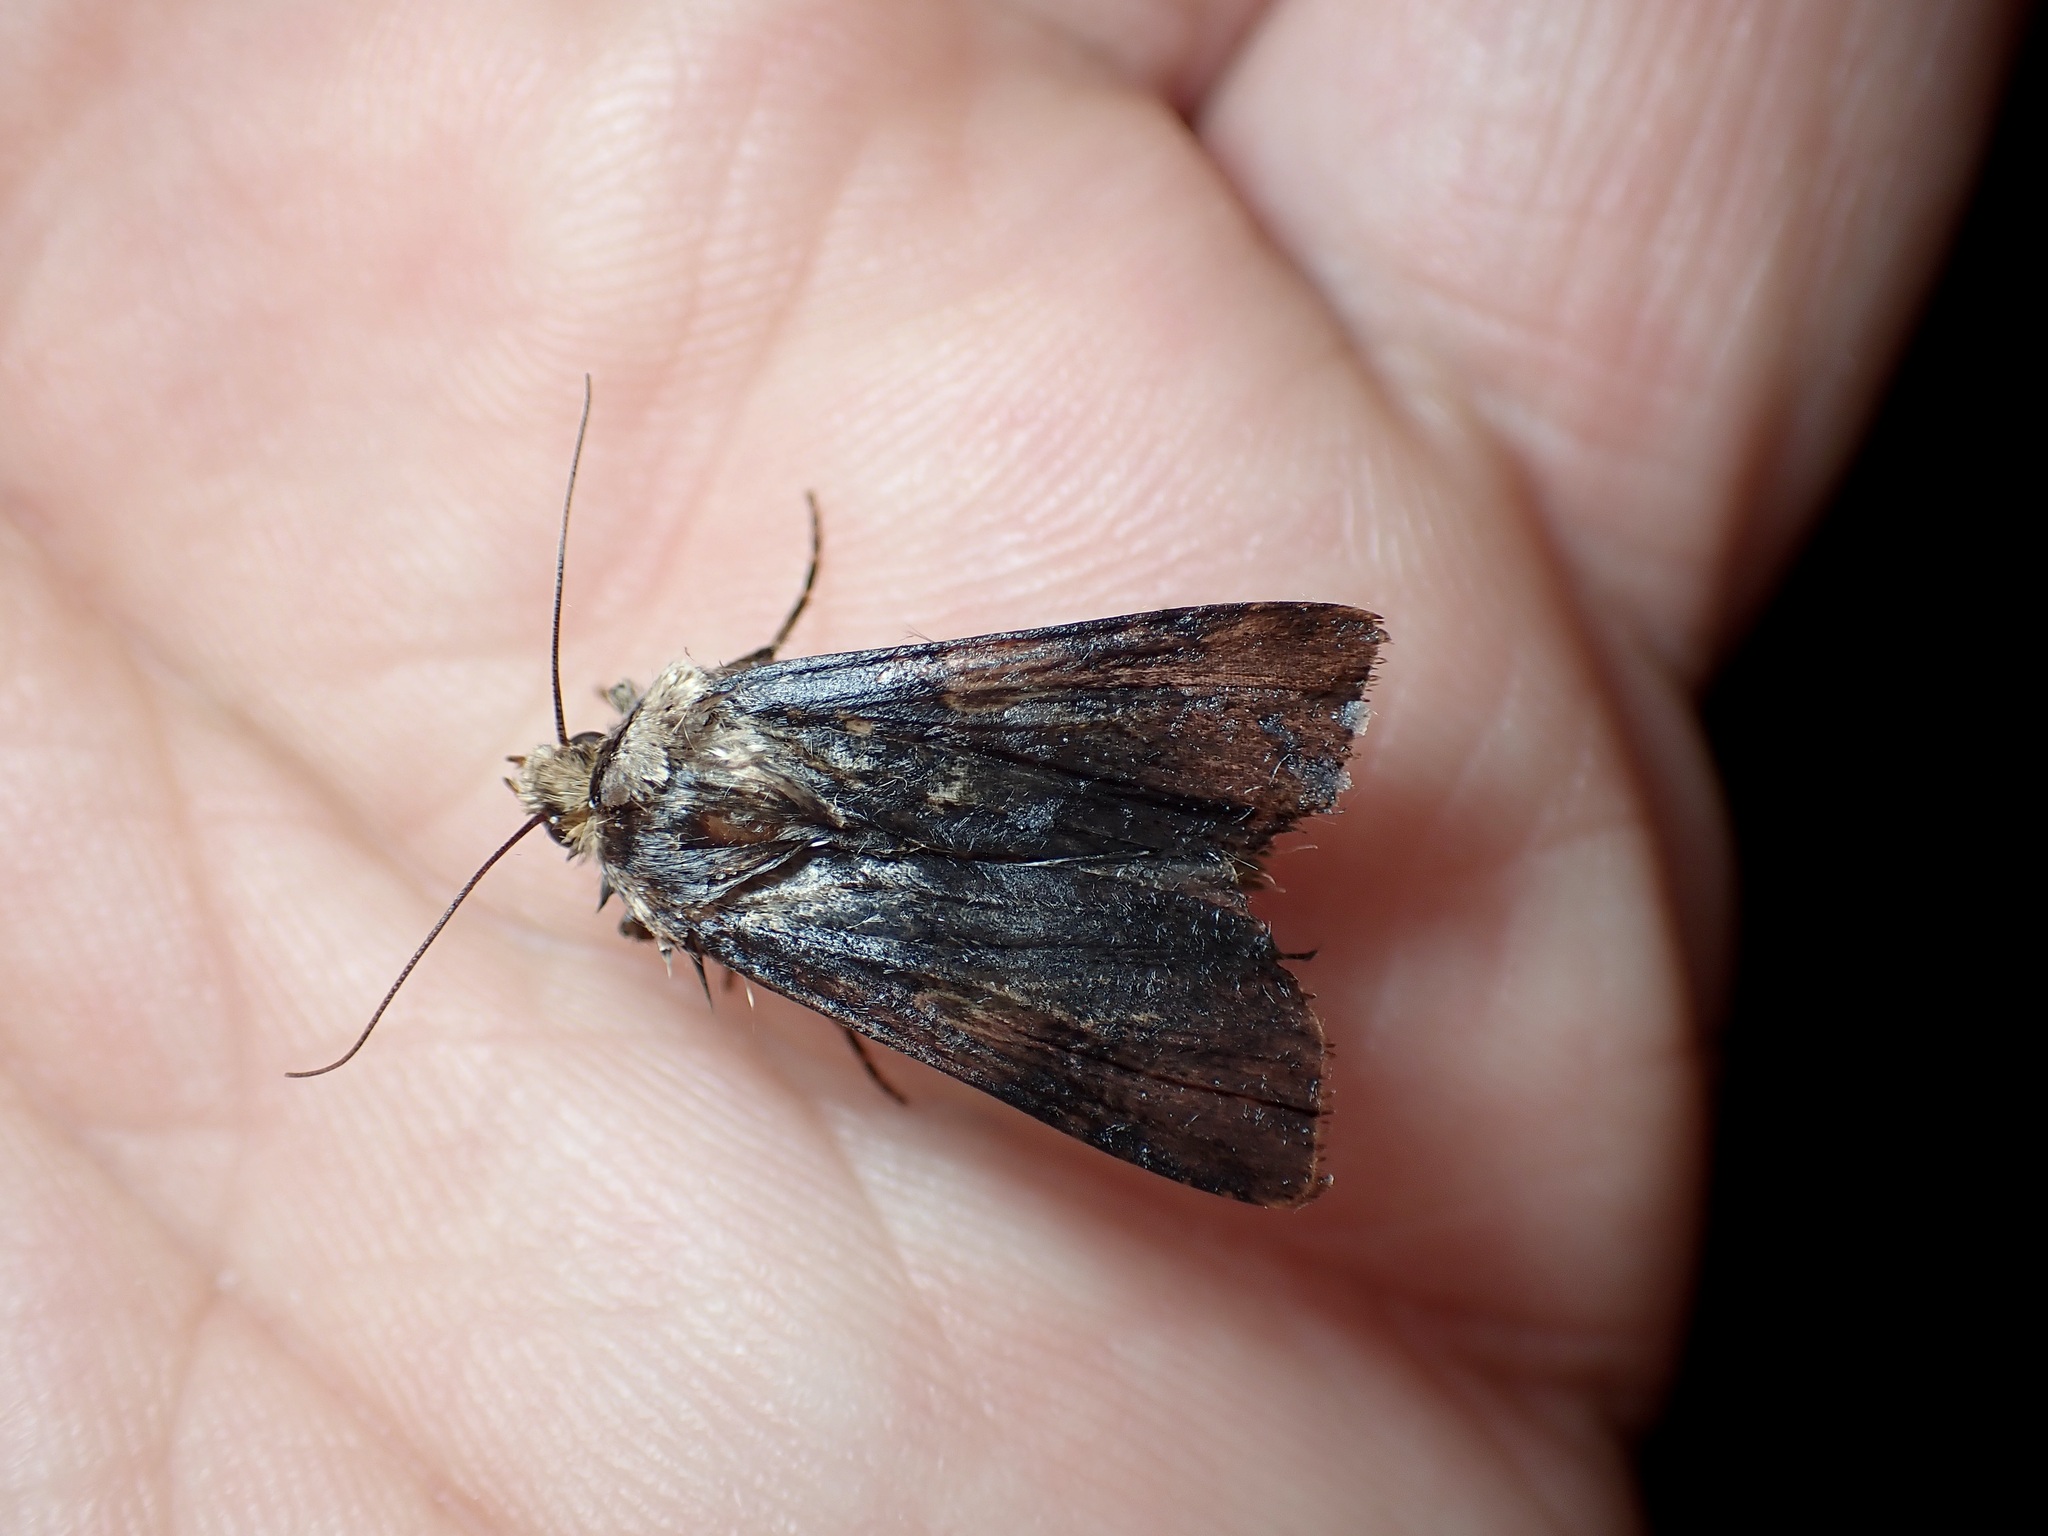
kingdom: Animalia
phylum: Arthropoda
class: Insecta
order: Lepidoptera
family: Noctuidae
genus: Agrotis
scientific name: Agrotis puta
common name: Shuttle-shaped dart
